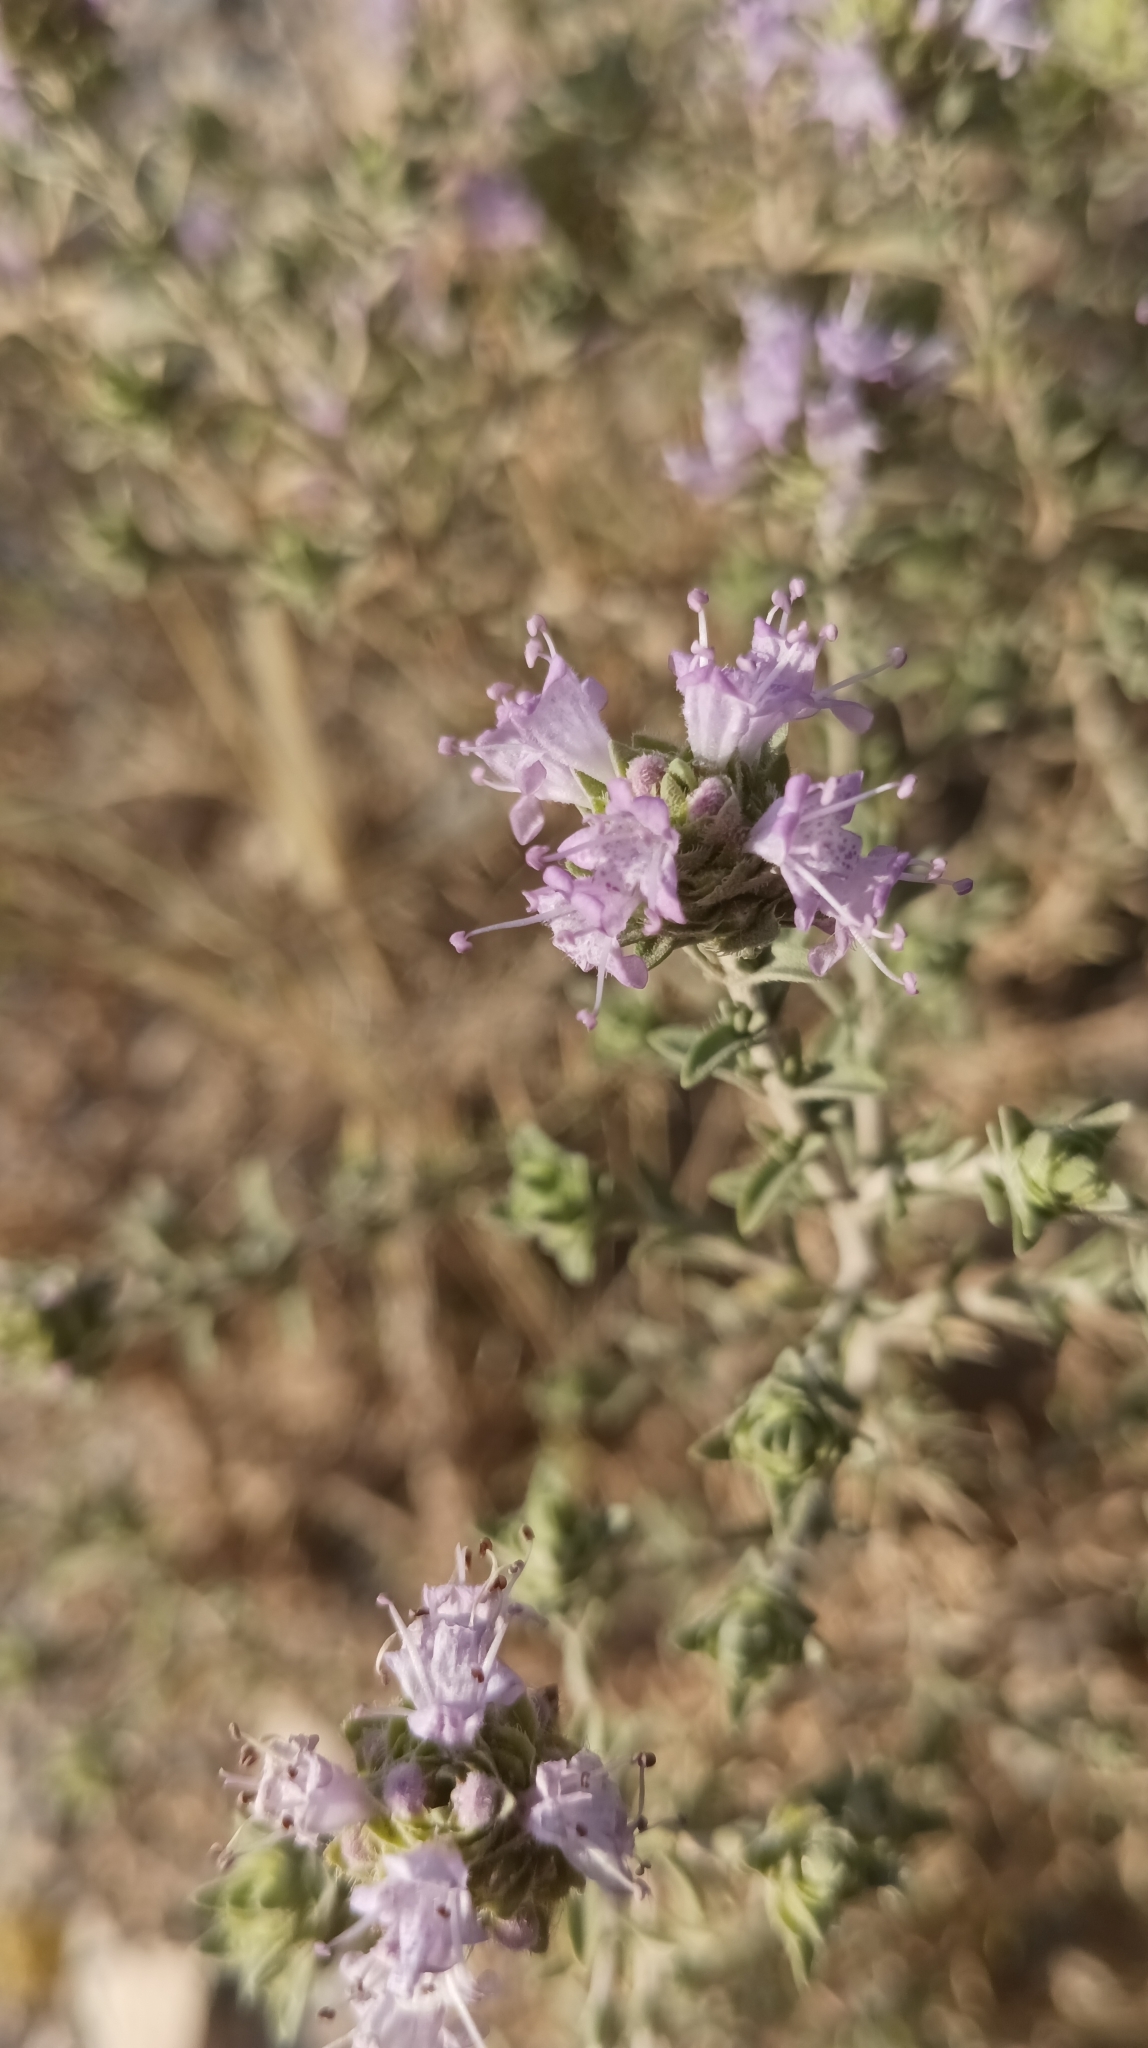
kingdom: Plantae
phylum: Tracheophyta
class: Magnoliopsida
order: Lamiales
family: Lamiaceae
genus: Thymbra
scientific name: Thymbra capitata
